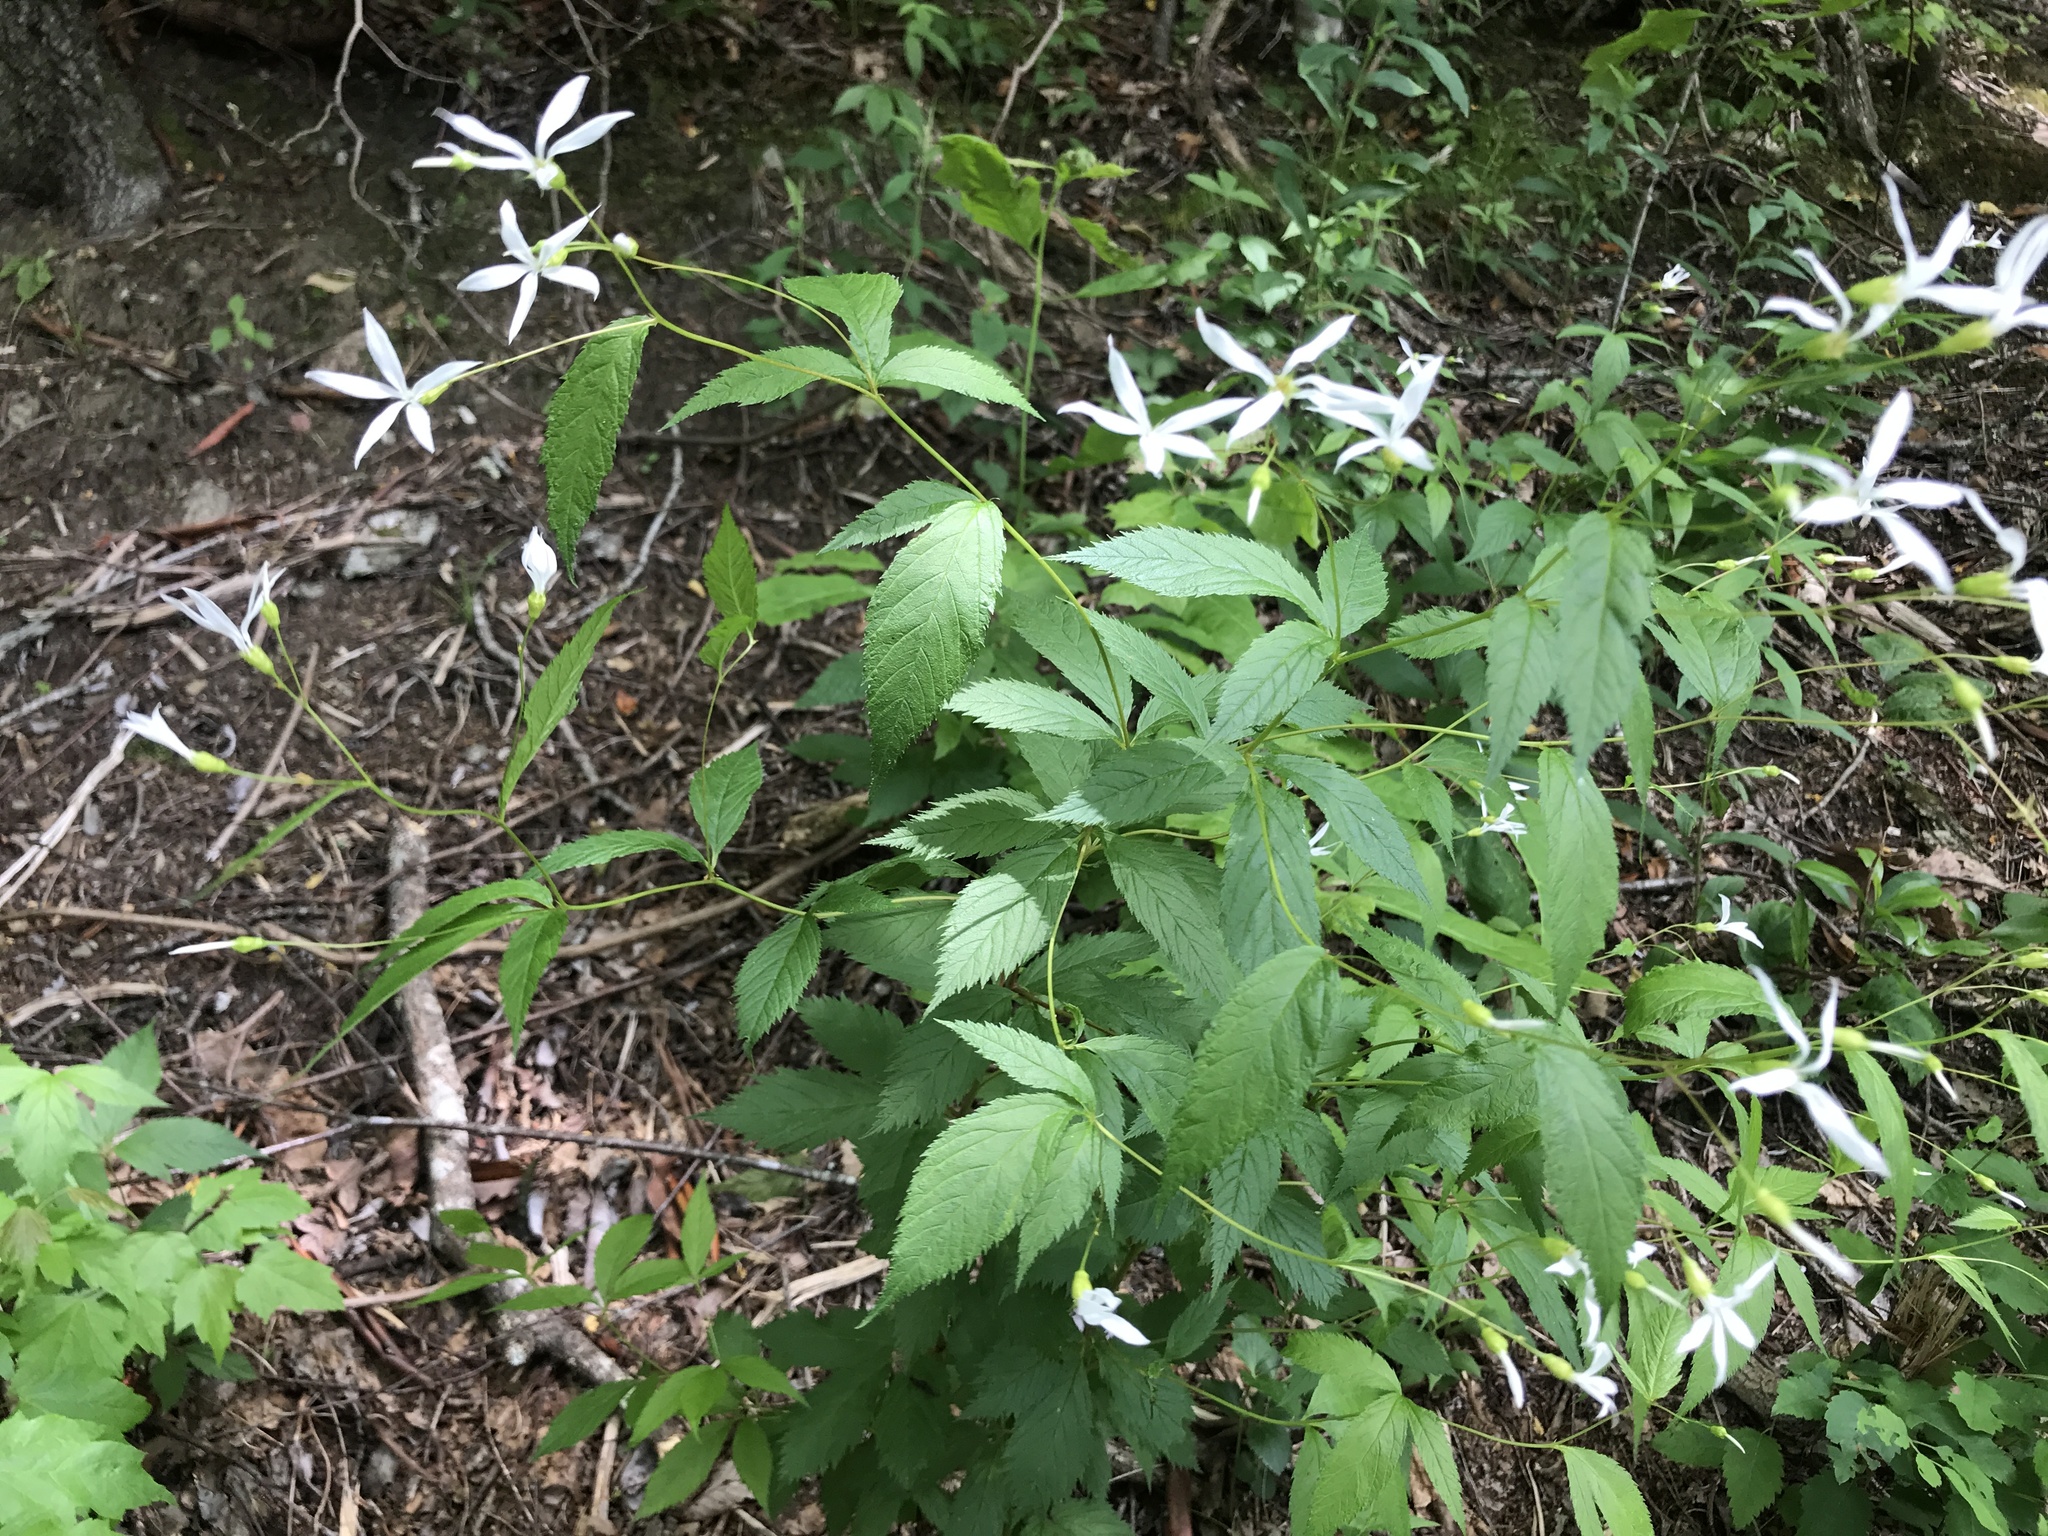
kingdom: Plantae
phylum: Tracheophyta
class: Magnoliopsida
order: Rosales
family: Rosaceae
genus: Gillenia
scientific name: Gillenia trifoliata
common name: Bowman's-root
